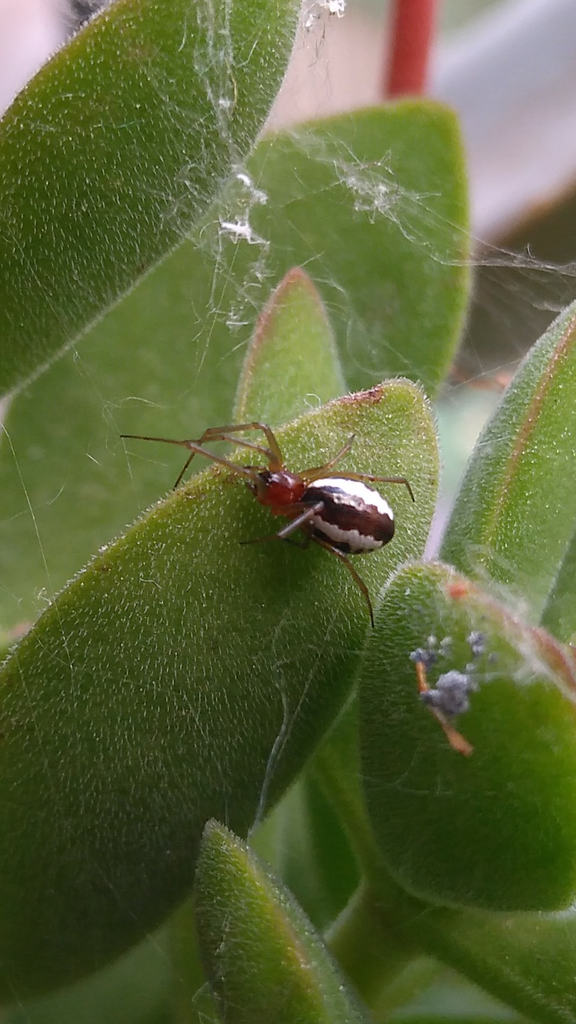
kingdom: Animalia
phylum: Arthropoda
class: Arachnida
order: Araneae
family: Linyphiidae
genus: Frontinellina
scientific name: Frontinellina frutetorum
